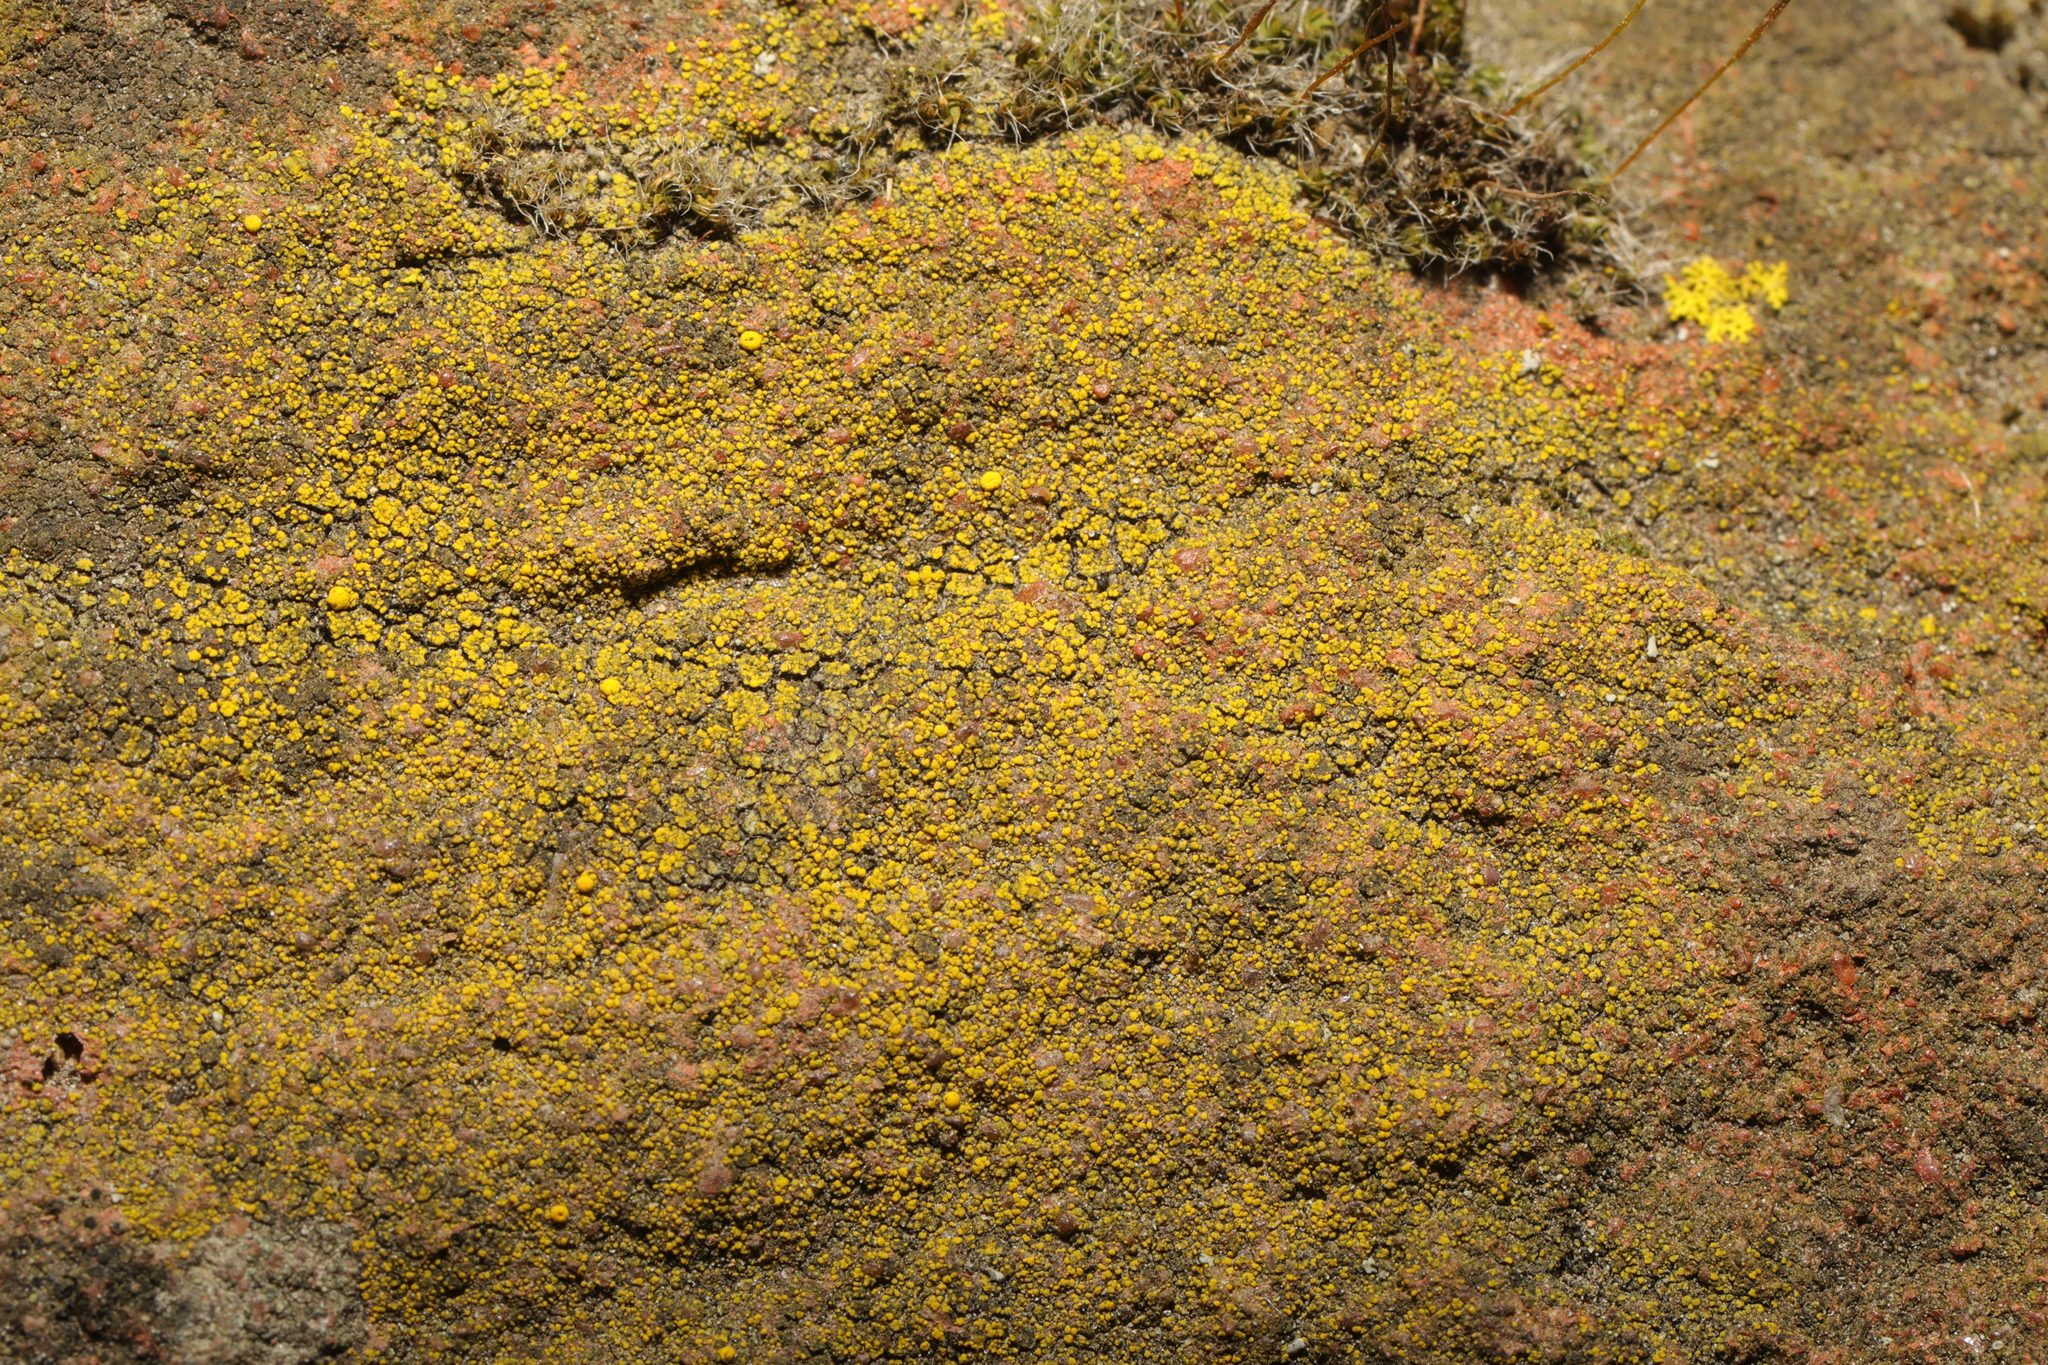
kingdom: Fungi
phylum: Ascomycota
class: Candelariomycetes
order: Candelariales
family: Candelariaceae
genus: Candelariella
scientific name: Candelariella vitellina
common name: Common goldspeck
